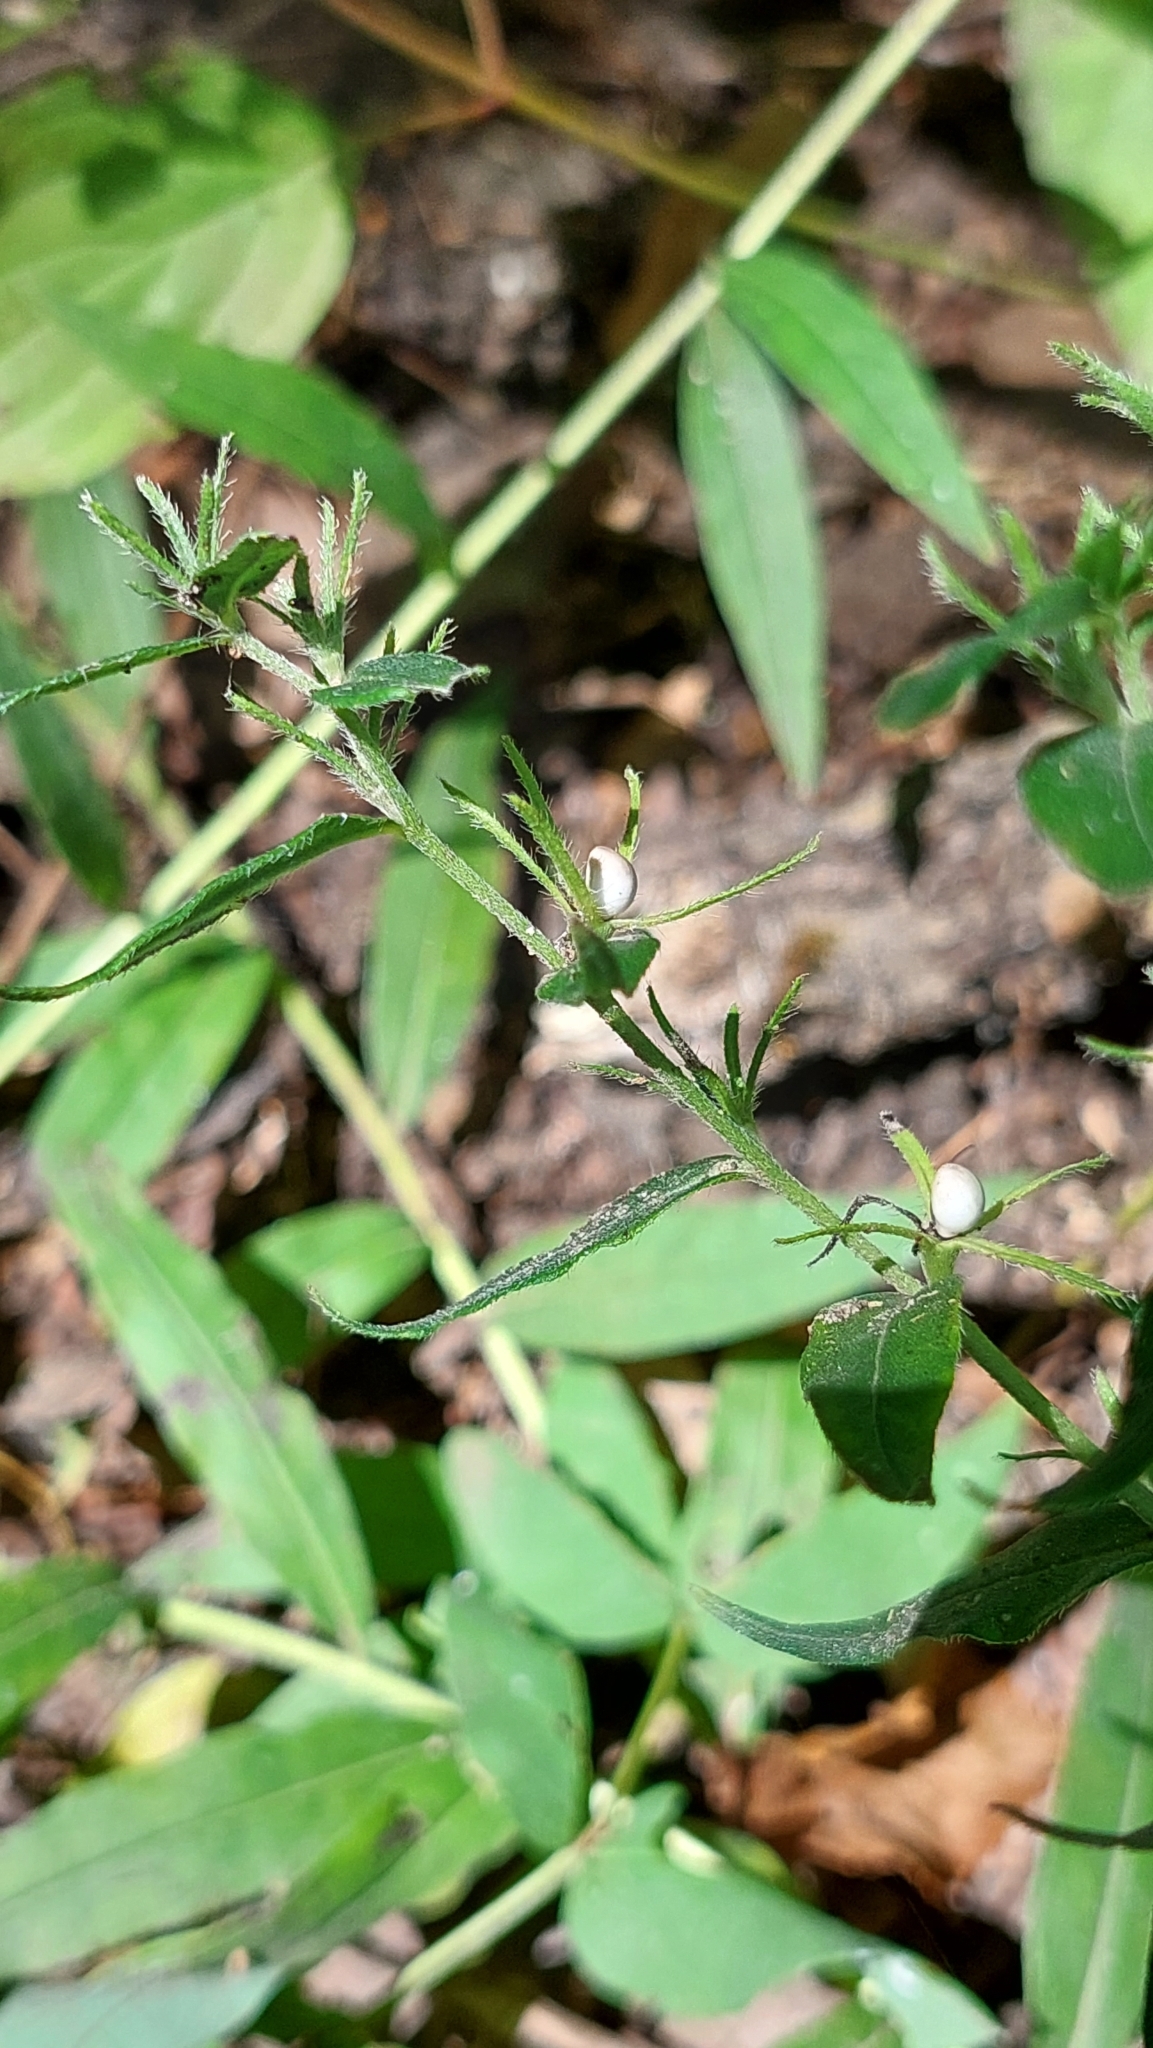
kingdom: Plantae
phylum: Tracheophyta
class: Magnoliopsida
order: Boraginales
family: Boraginaceae
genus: Aegonychon
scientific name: Aegonychon purpurocaeruleum
